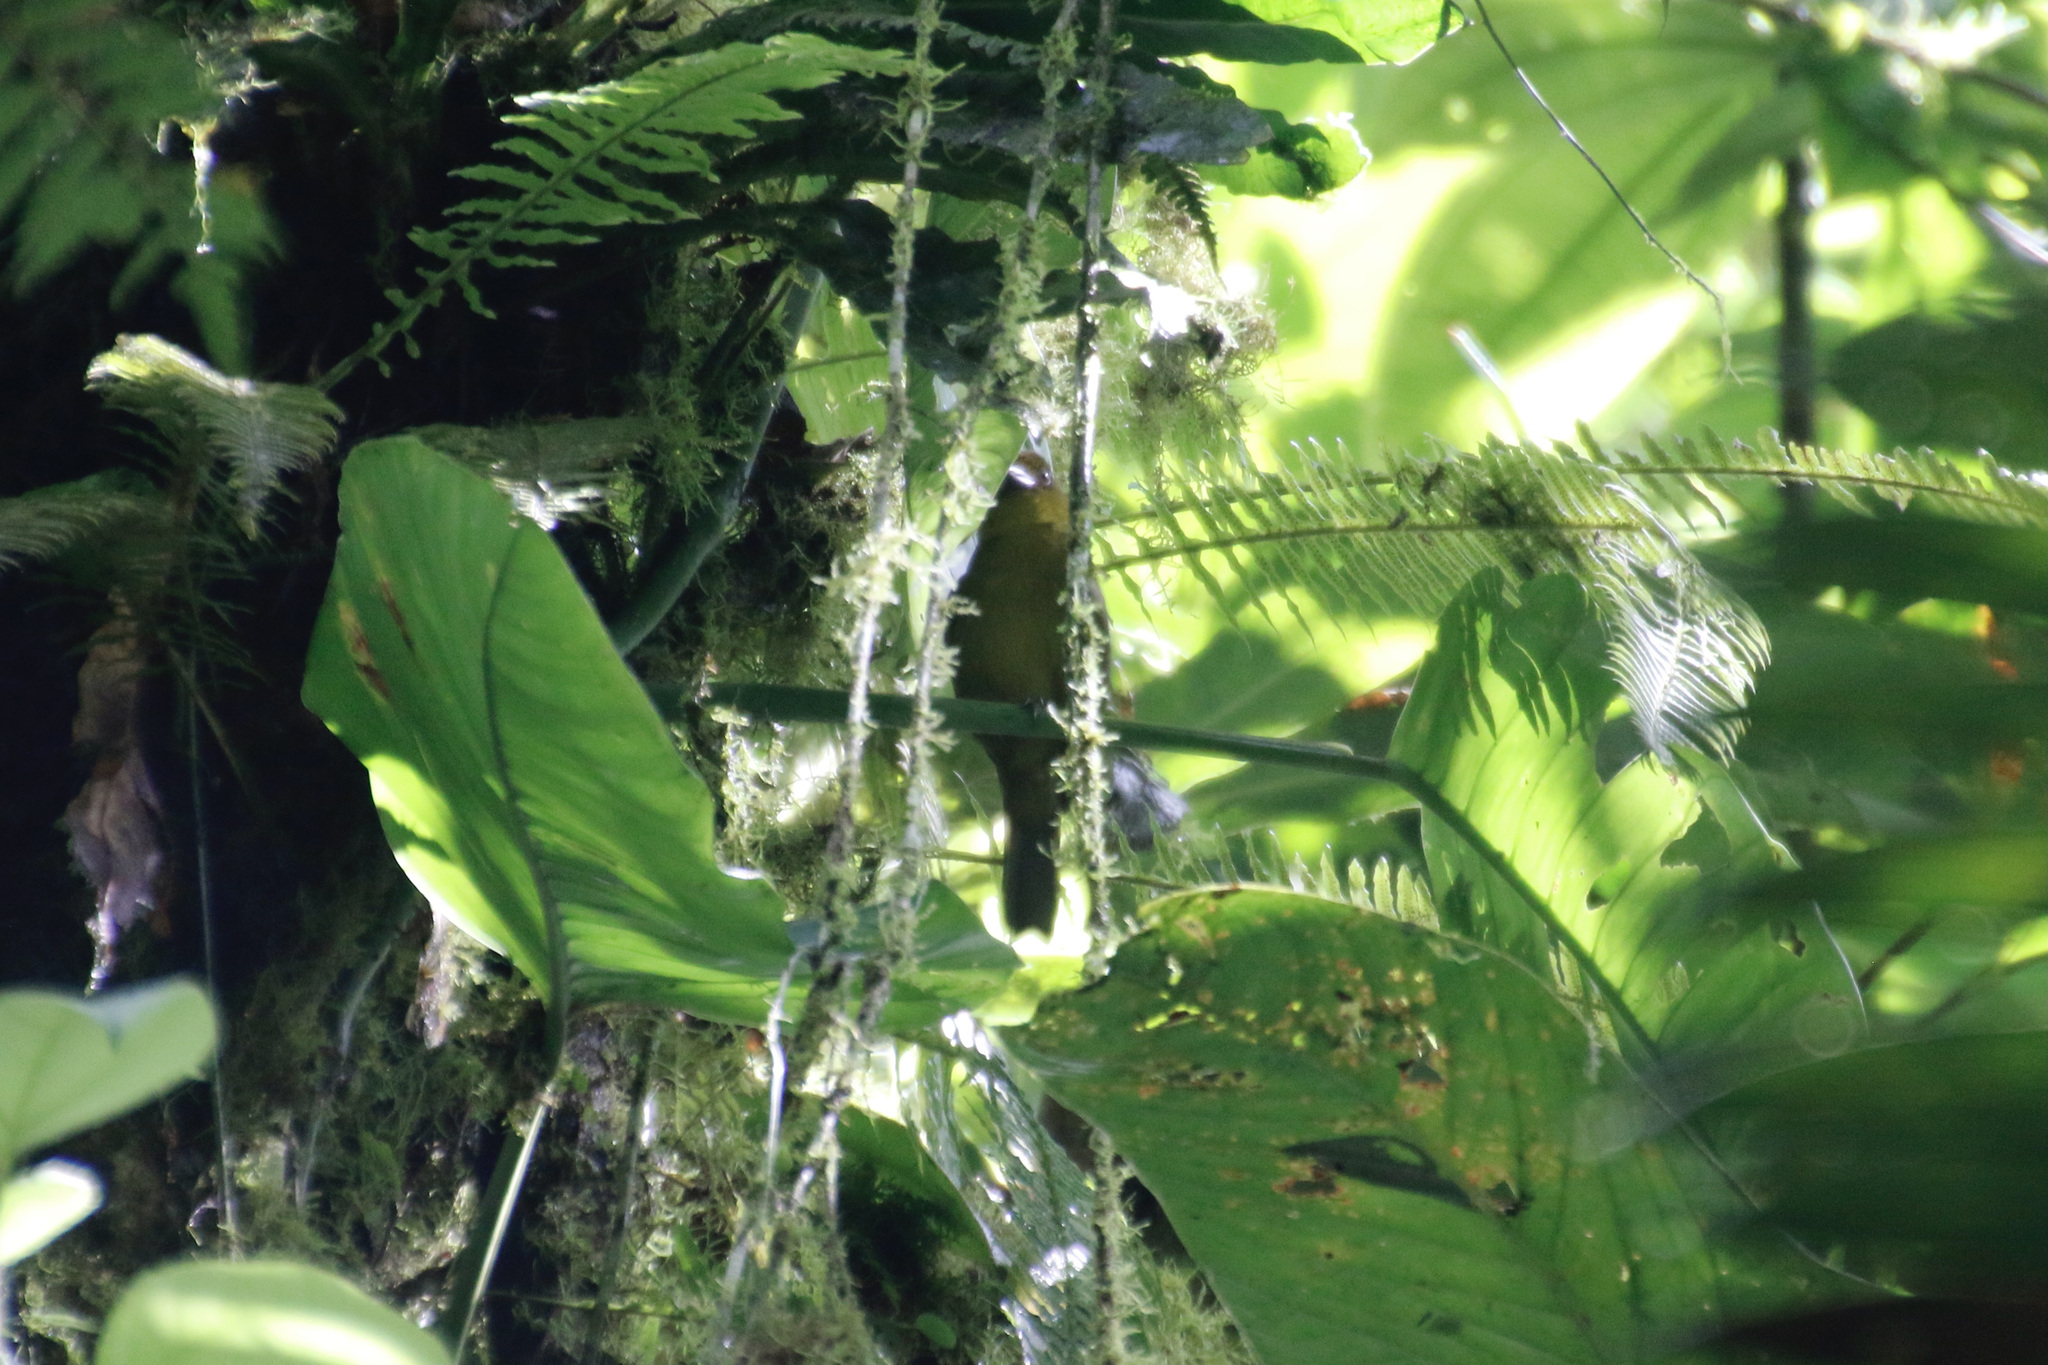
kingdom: Animalia
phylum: Chordata
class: Aves
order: Passeriformes
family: Cardinalidae
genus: Chlorothraupis
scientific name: Chlorothraupis carmioli
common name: Carmiol's tanager
